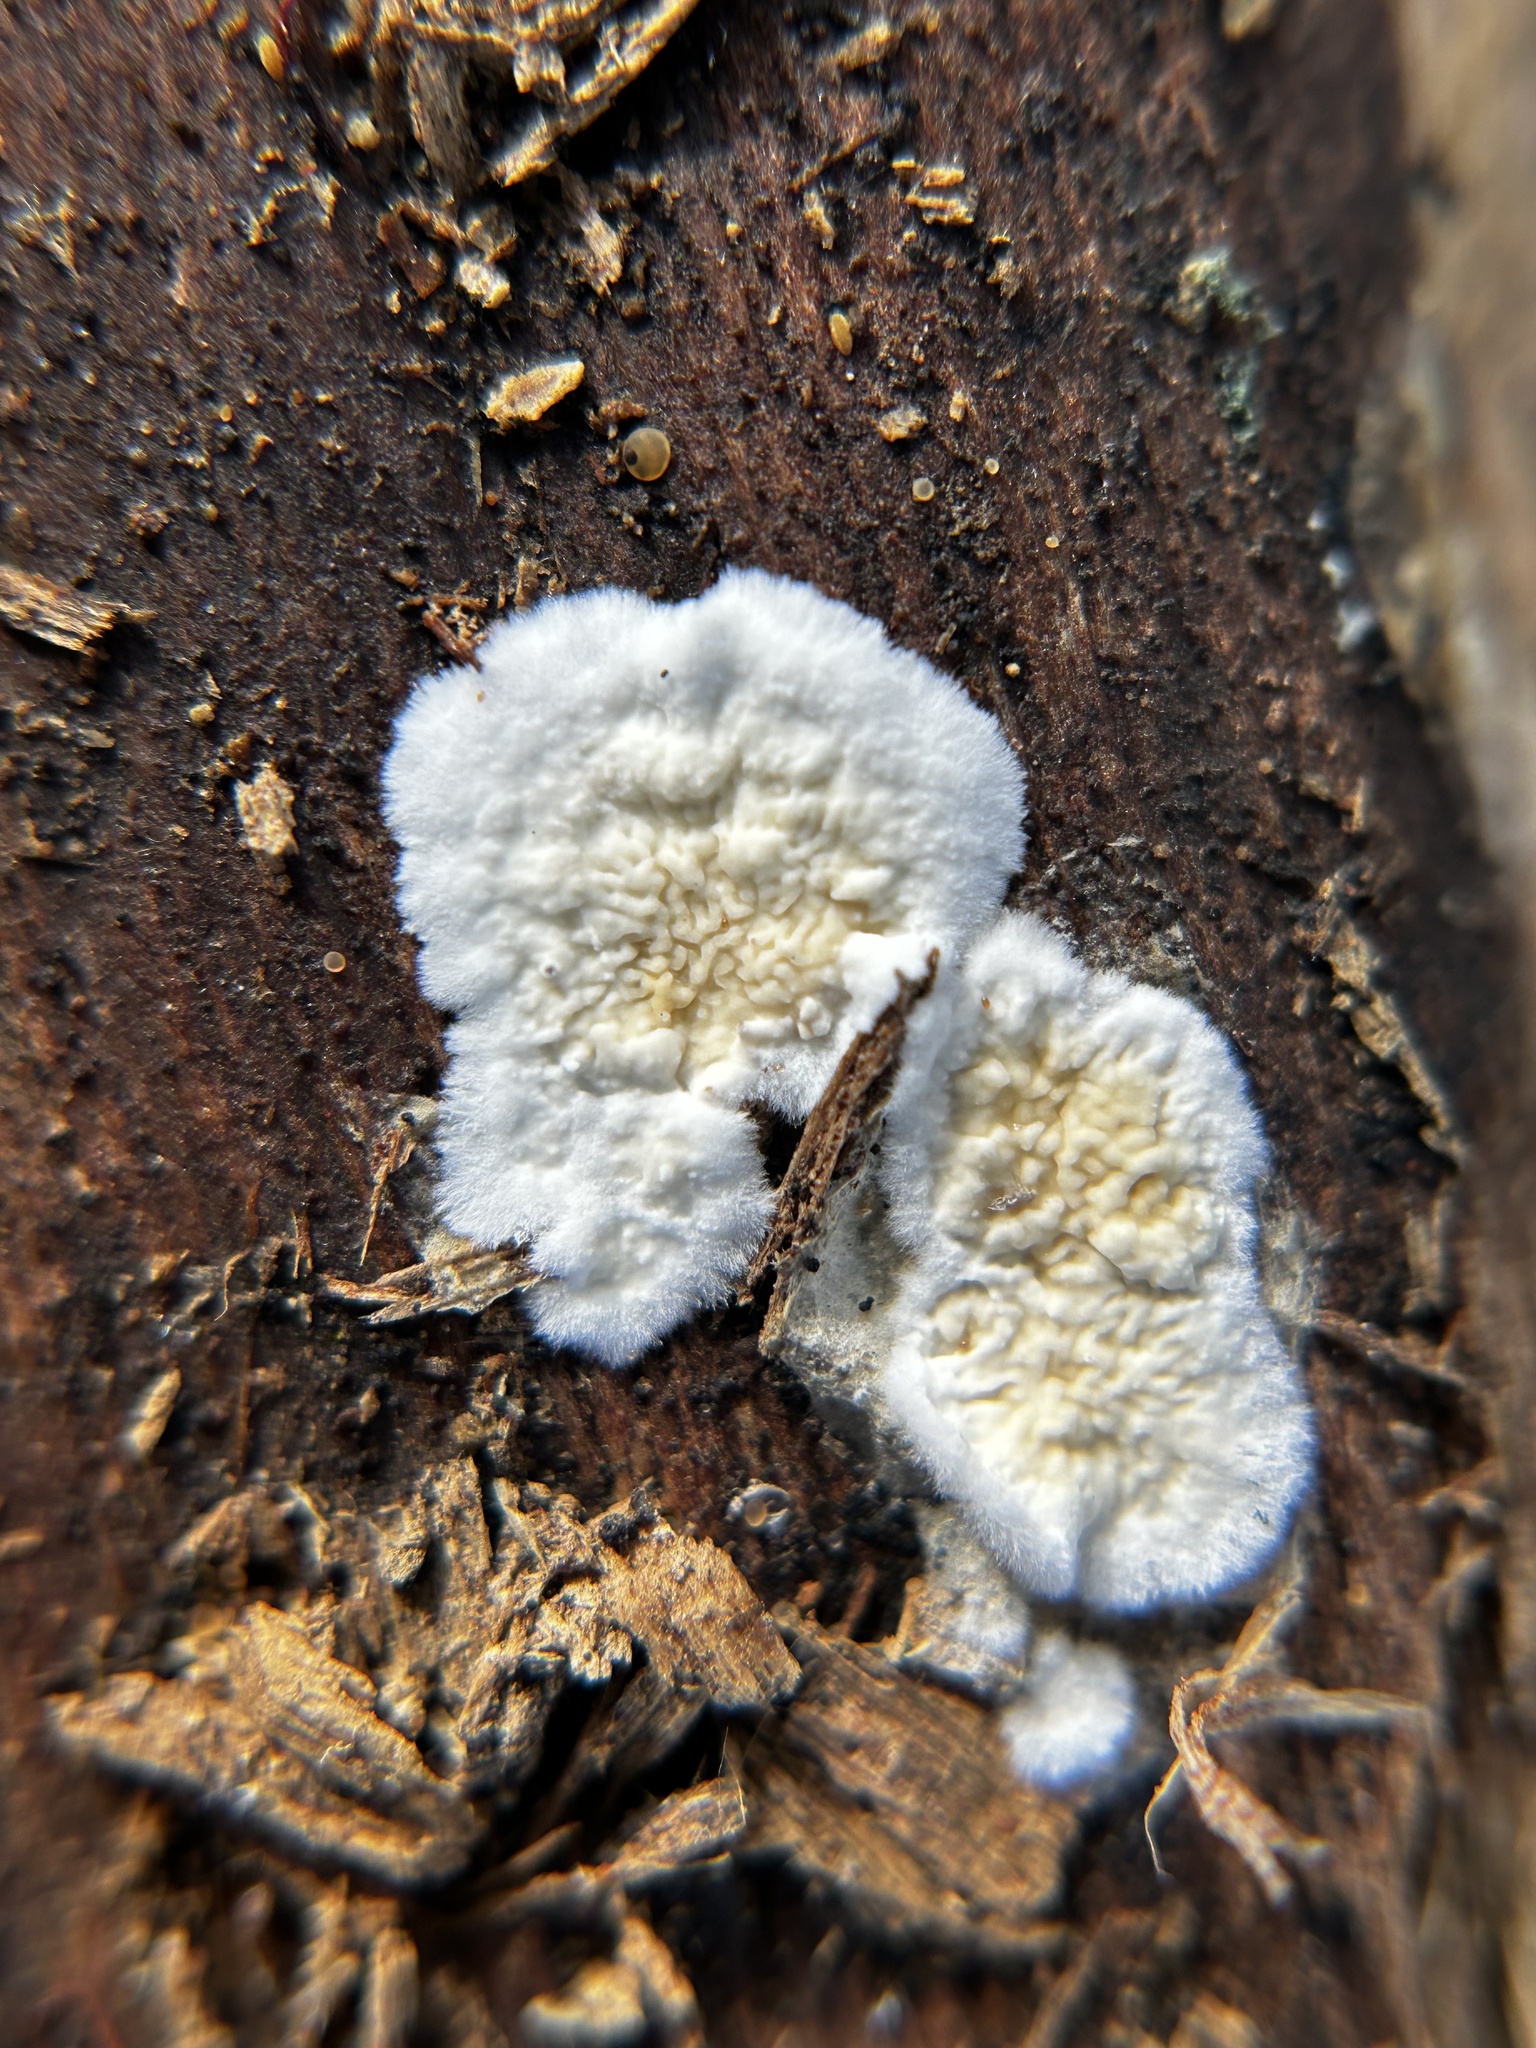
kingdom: Fungi
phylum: Basidiomycota
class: Agaricomycetes
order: Polyporales
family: Irpicaceae
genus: Byssomerulius
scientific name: Byssomerulius corium
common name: Netted crust
